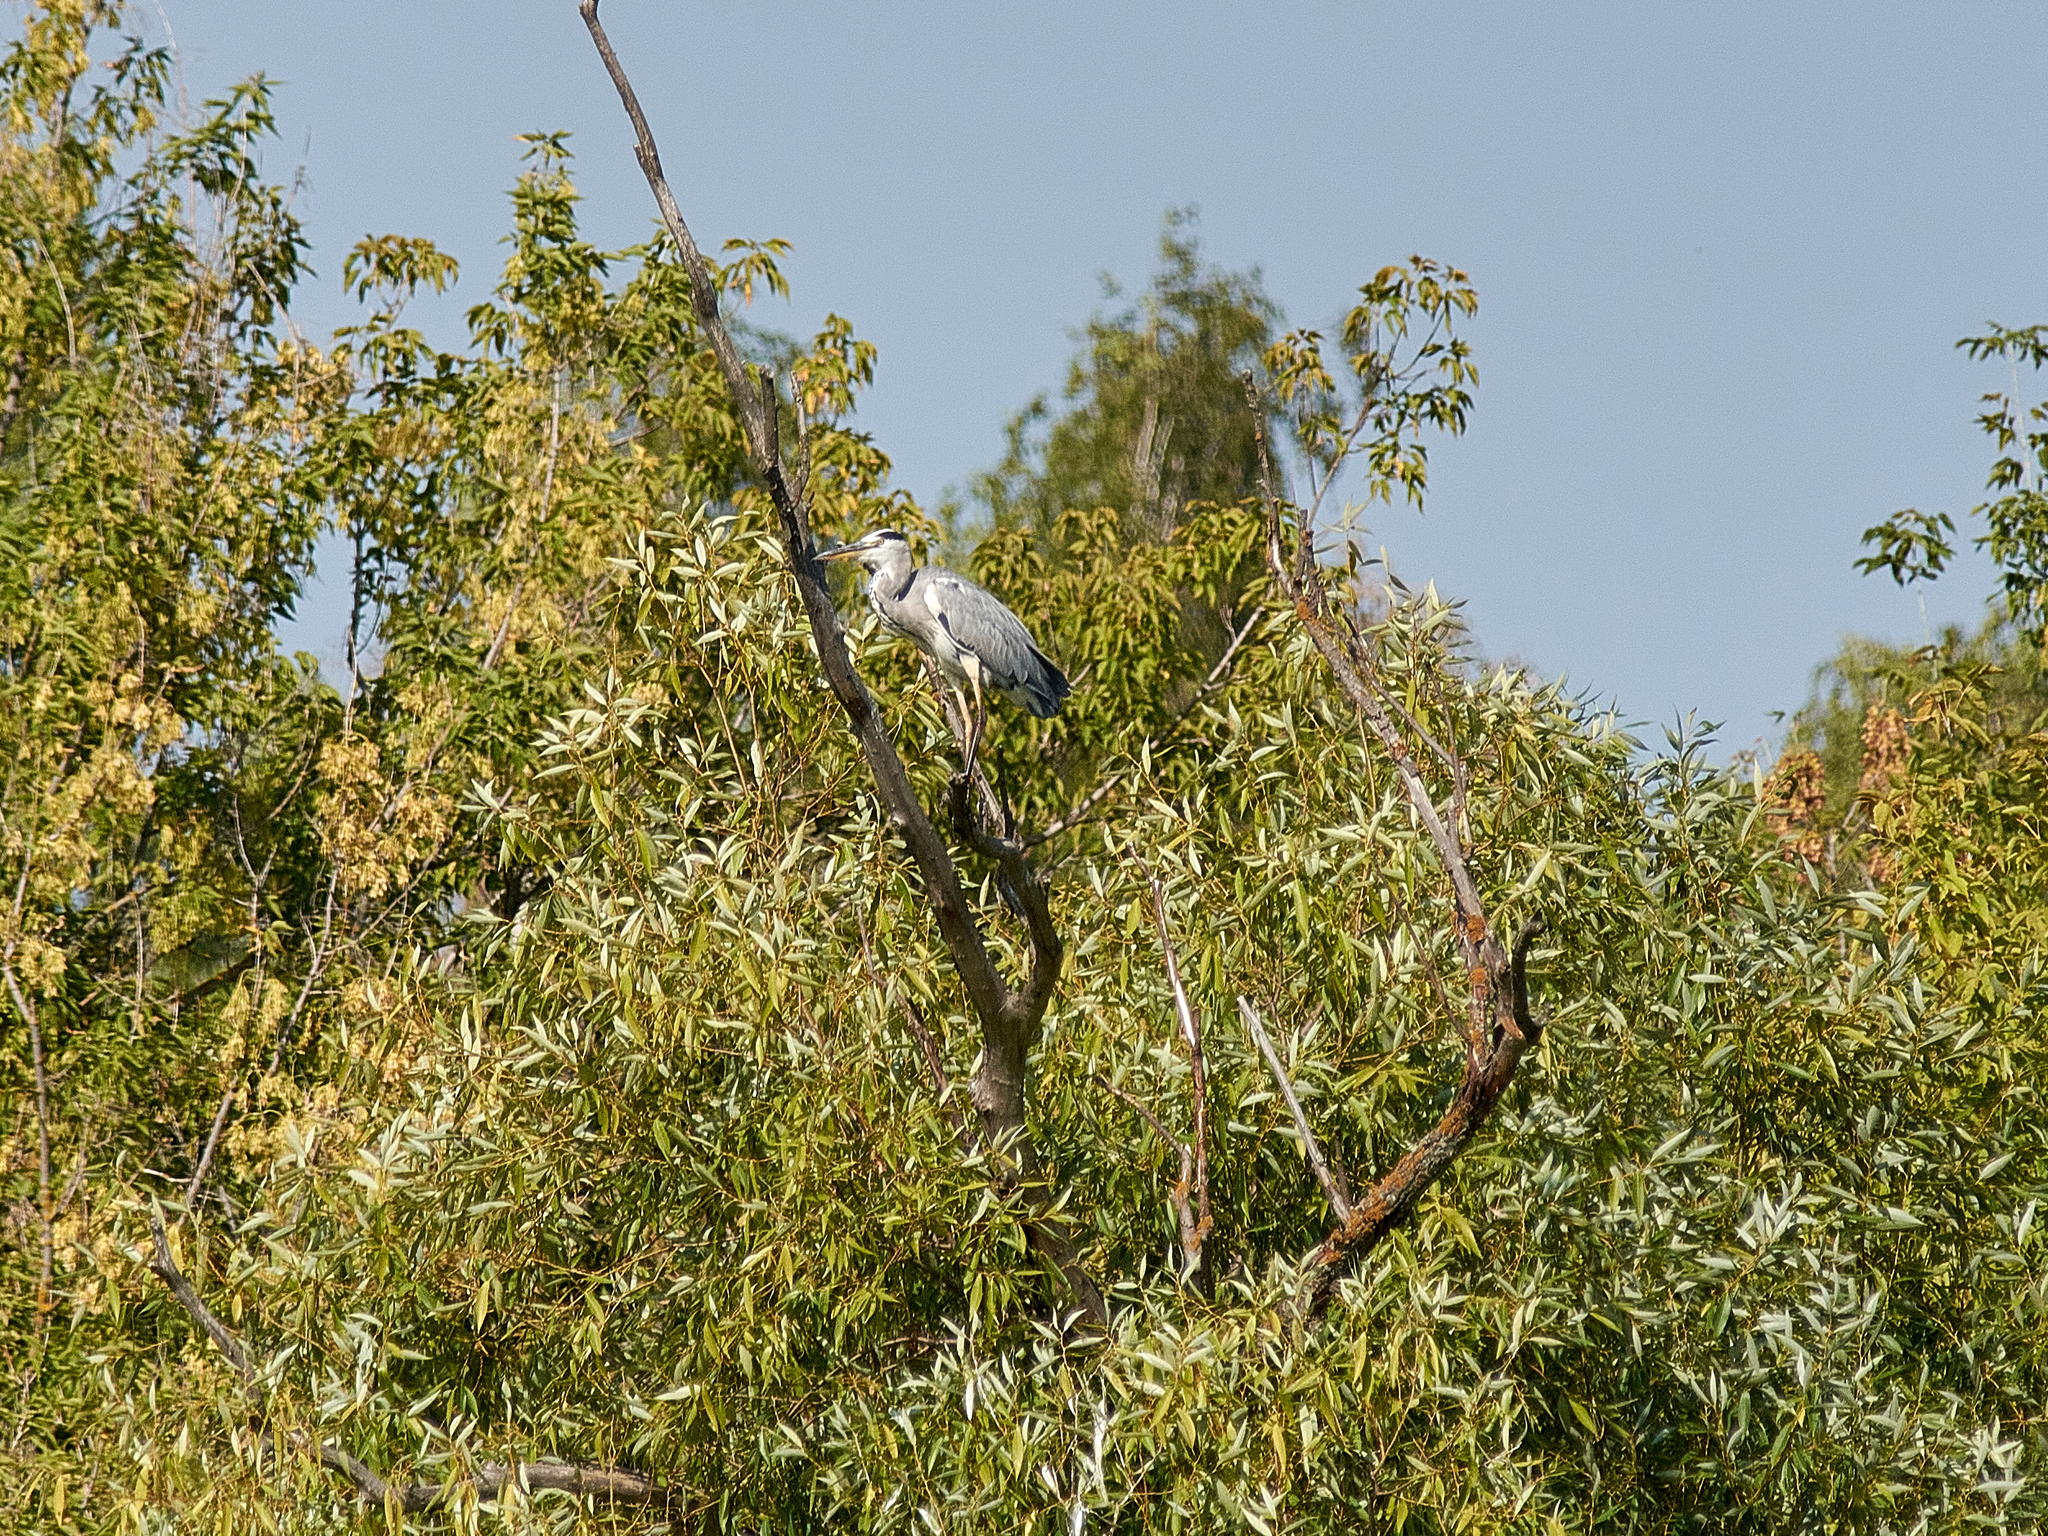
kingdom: Animalia
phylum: Chordata
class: Aves
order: Pelecaniformes
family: Ardeidae
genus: Ardea
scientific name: Ardea cinerea
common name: Grey heron
